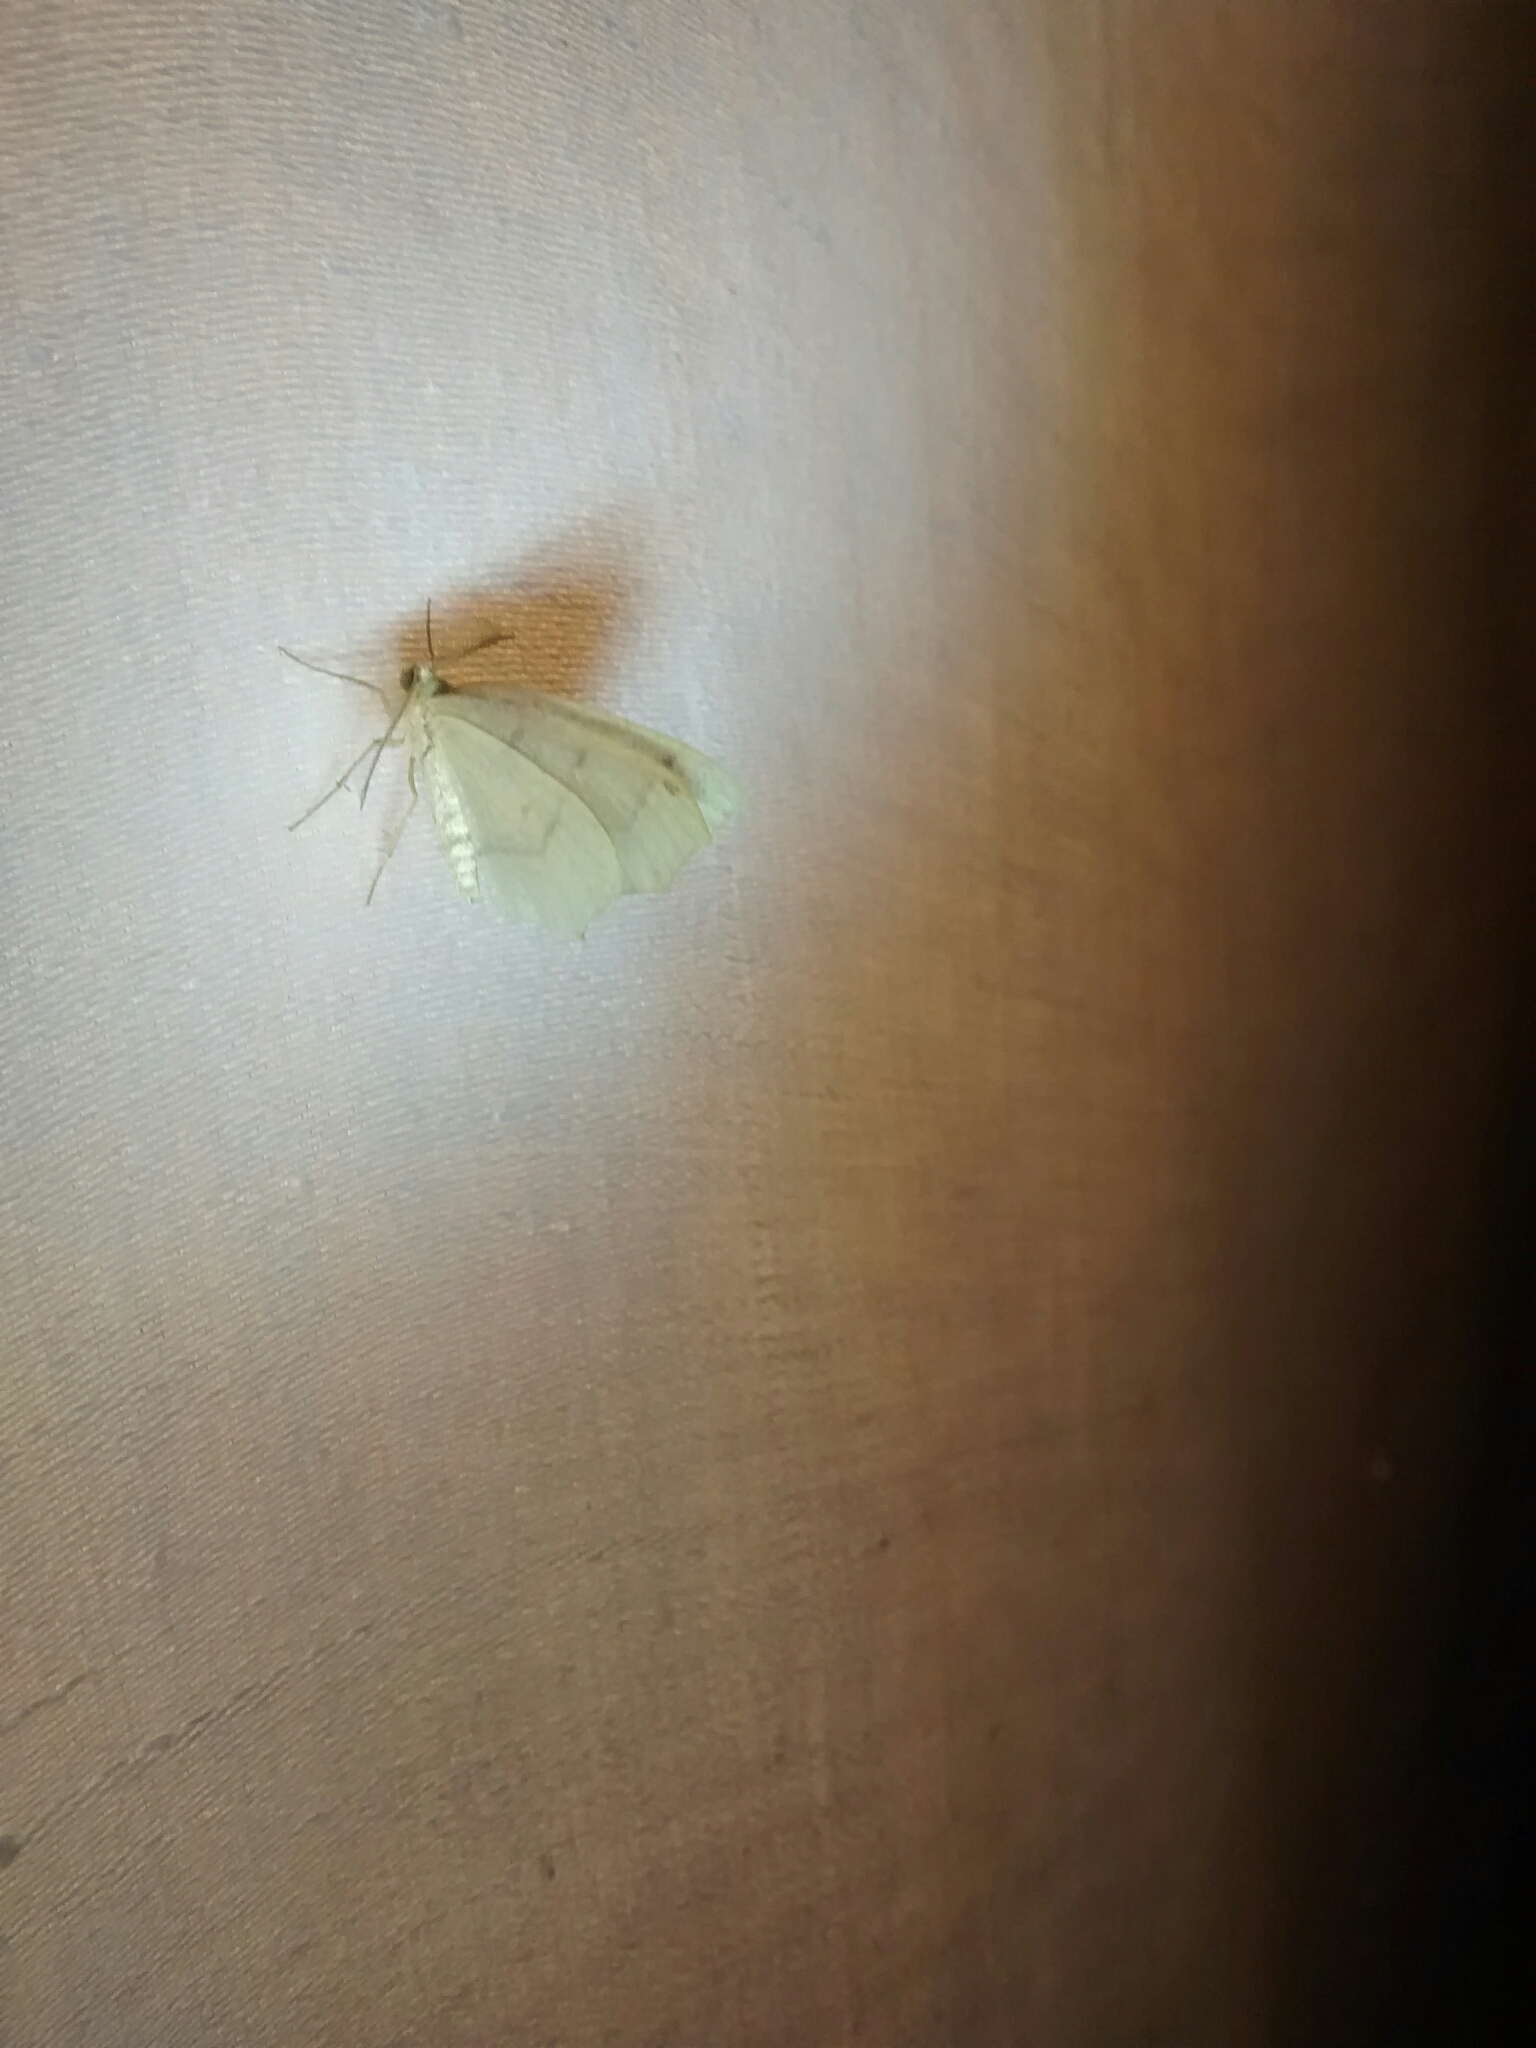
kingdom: Animalia
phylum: Arthropoda
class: Insecta
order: Lepidoptera
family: Geometridae
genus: Lambdina
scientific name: Lambdina fiscellaria
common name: Hemlock looper
